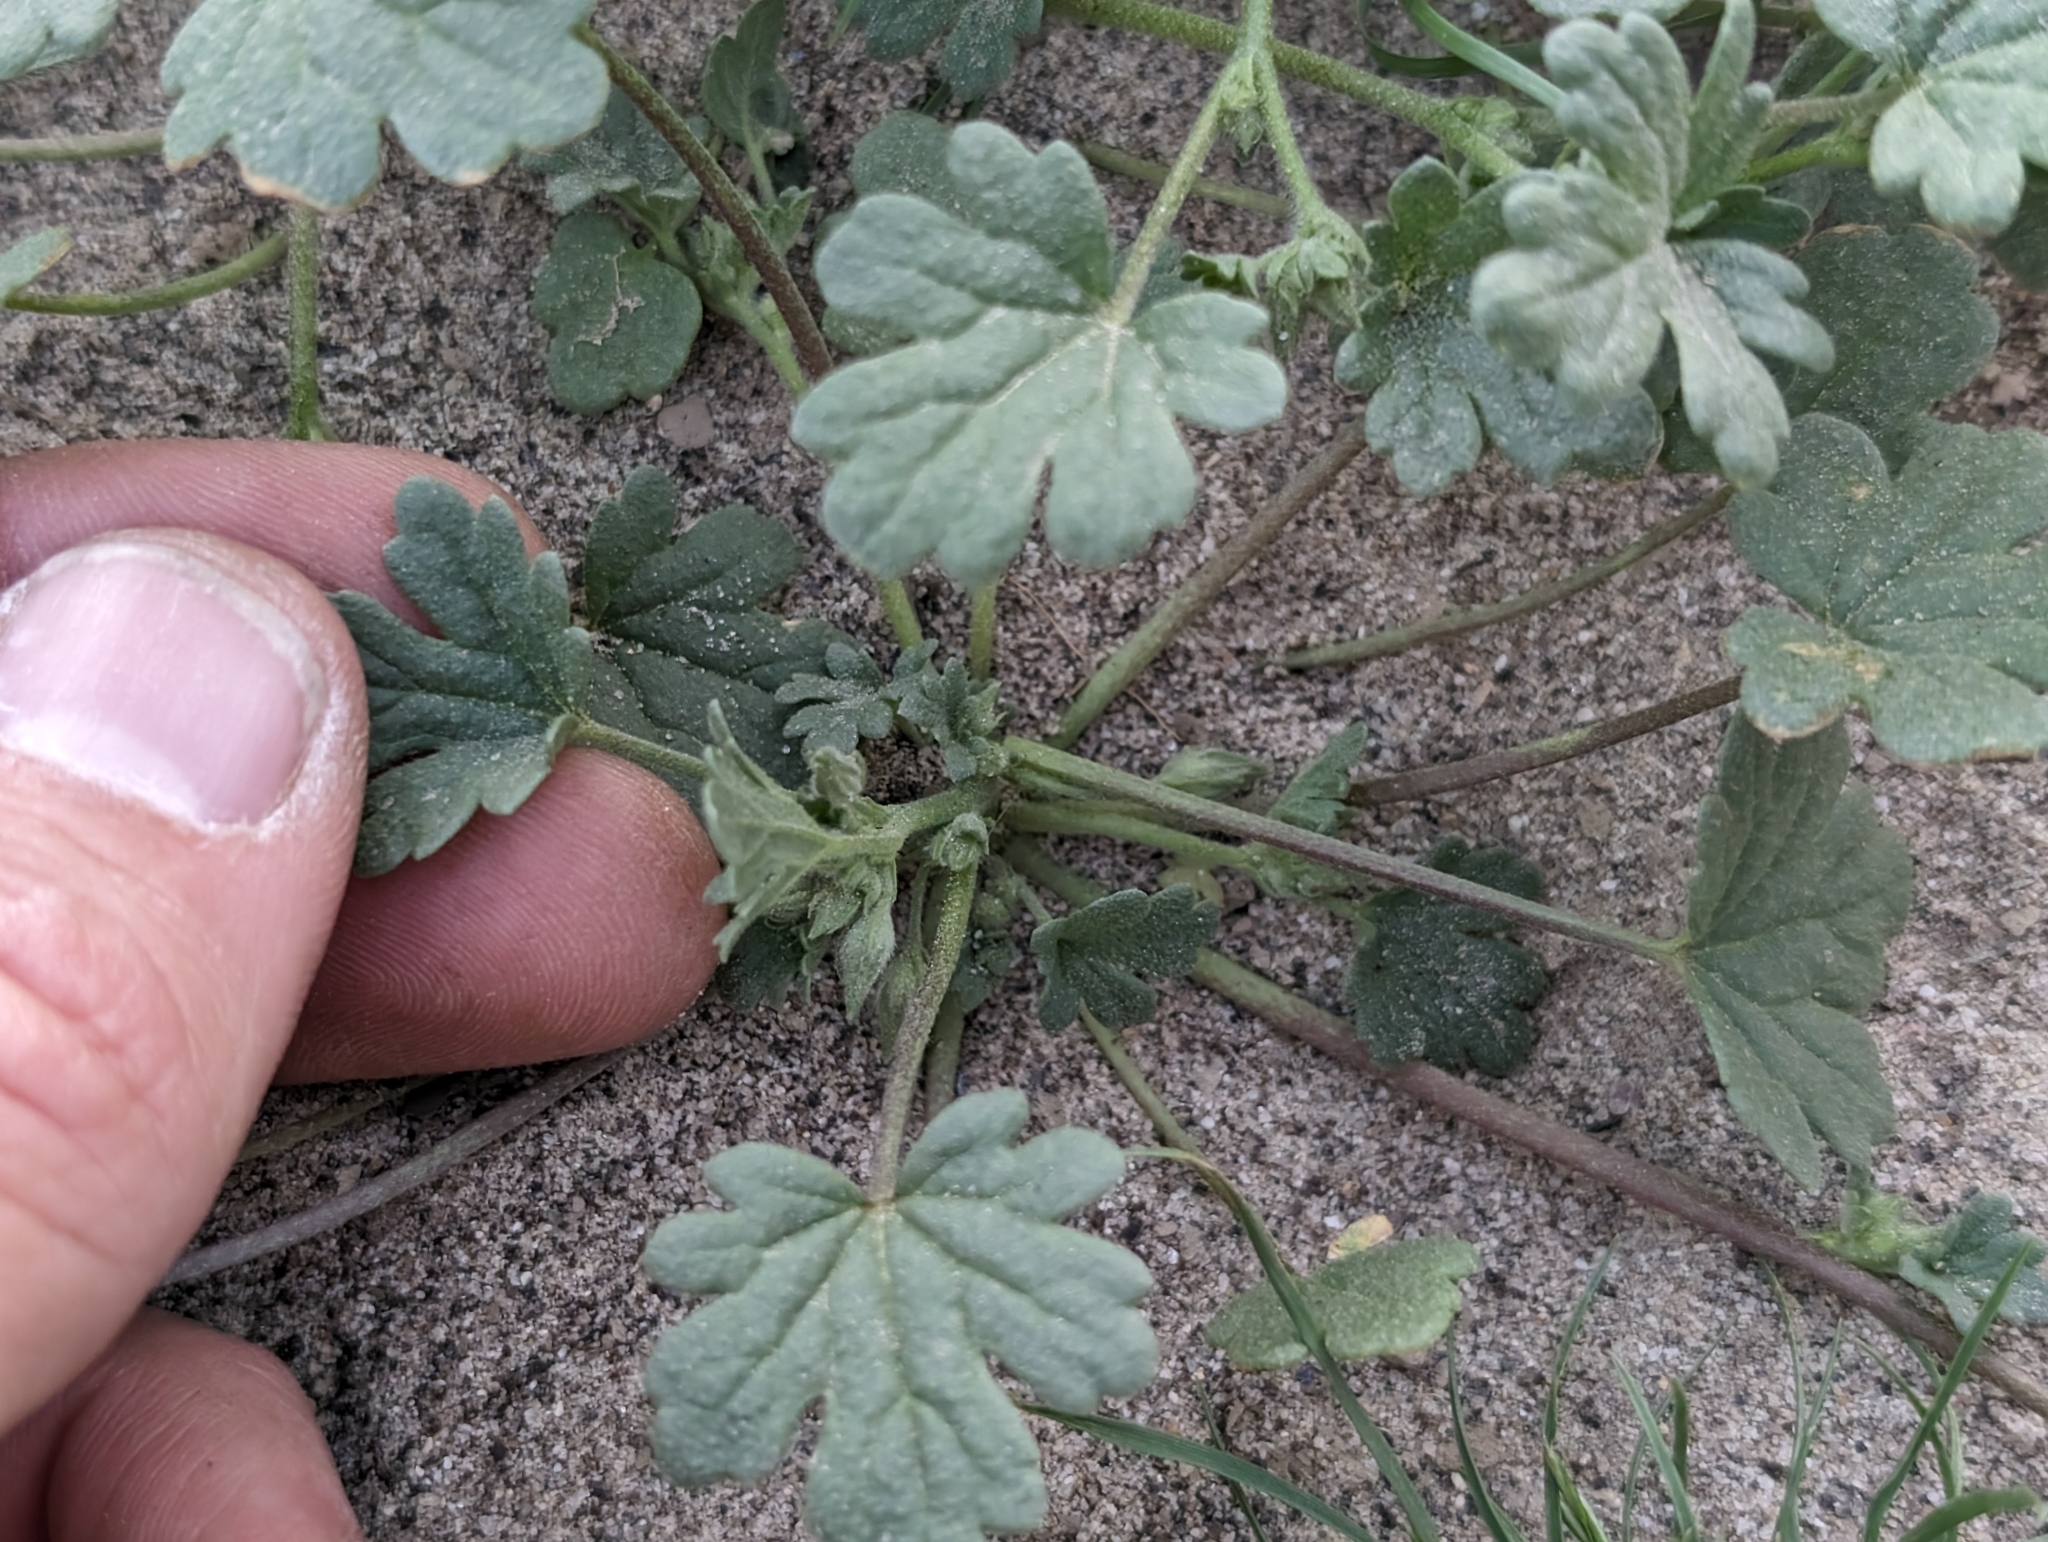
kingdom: Plantae
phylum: Tracheophyta
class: Magnoliopsida
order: Malvales
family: Malvaceae
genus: Eremalche
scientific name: Eremalche exilis
